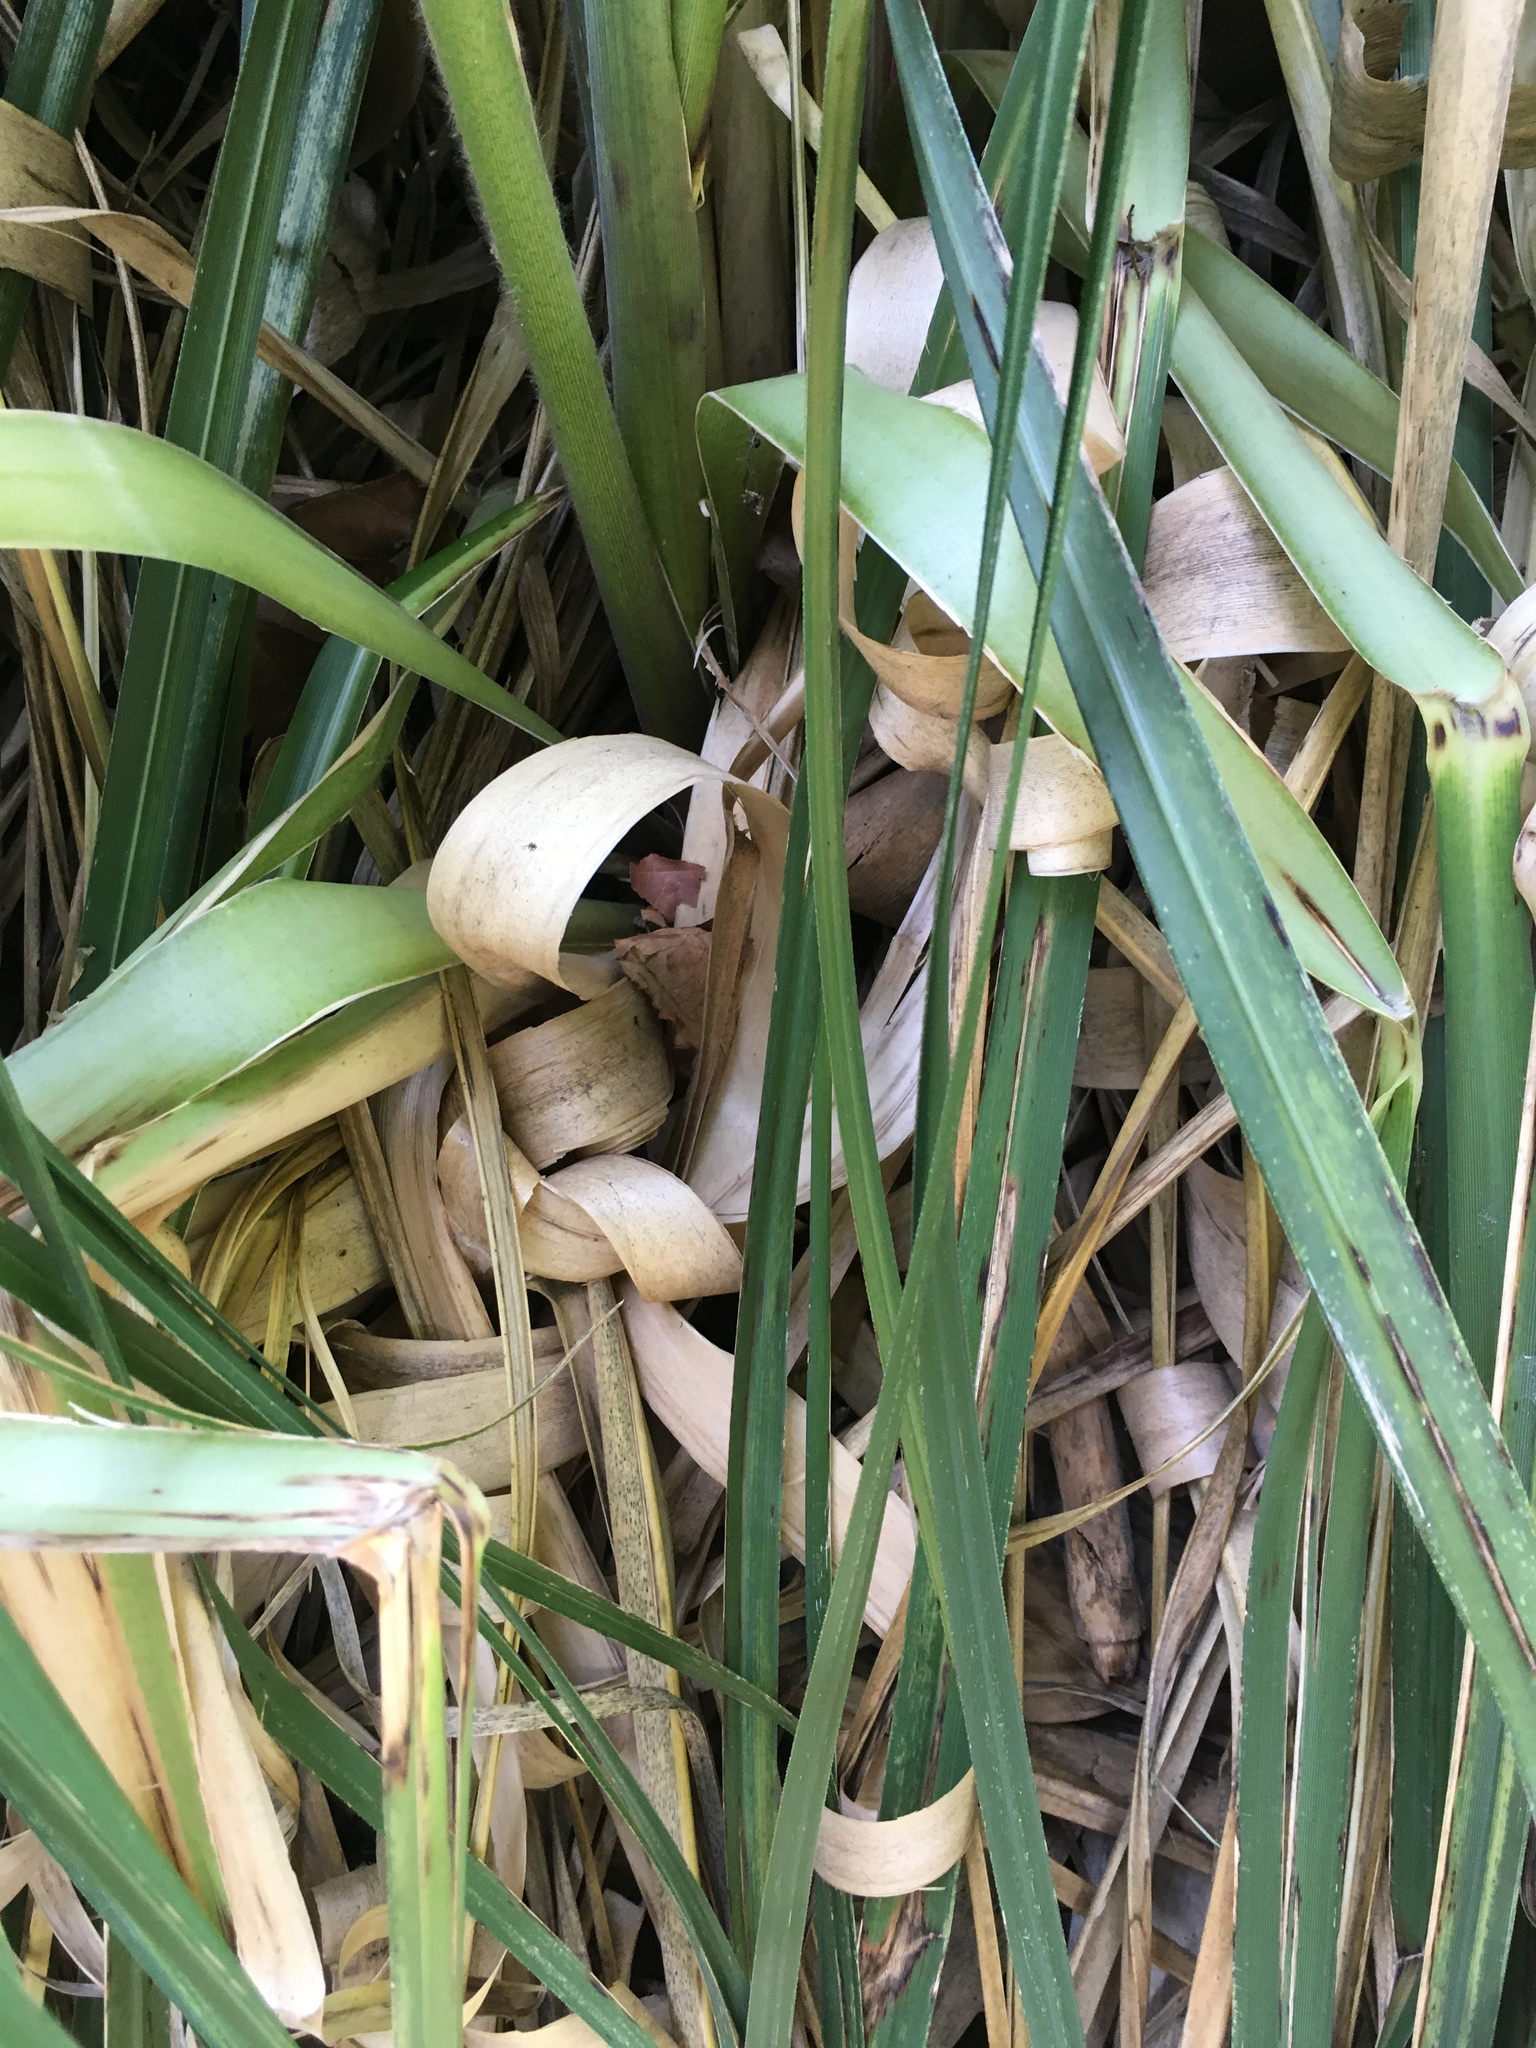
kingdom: Plantae
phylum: Tracheophyta
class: Liliopsida
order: Poales
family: Poaceae
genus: Cortaderia
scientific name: Cortaderia selloana
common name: Uruguayan pampas grass
